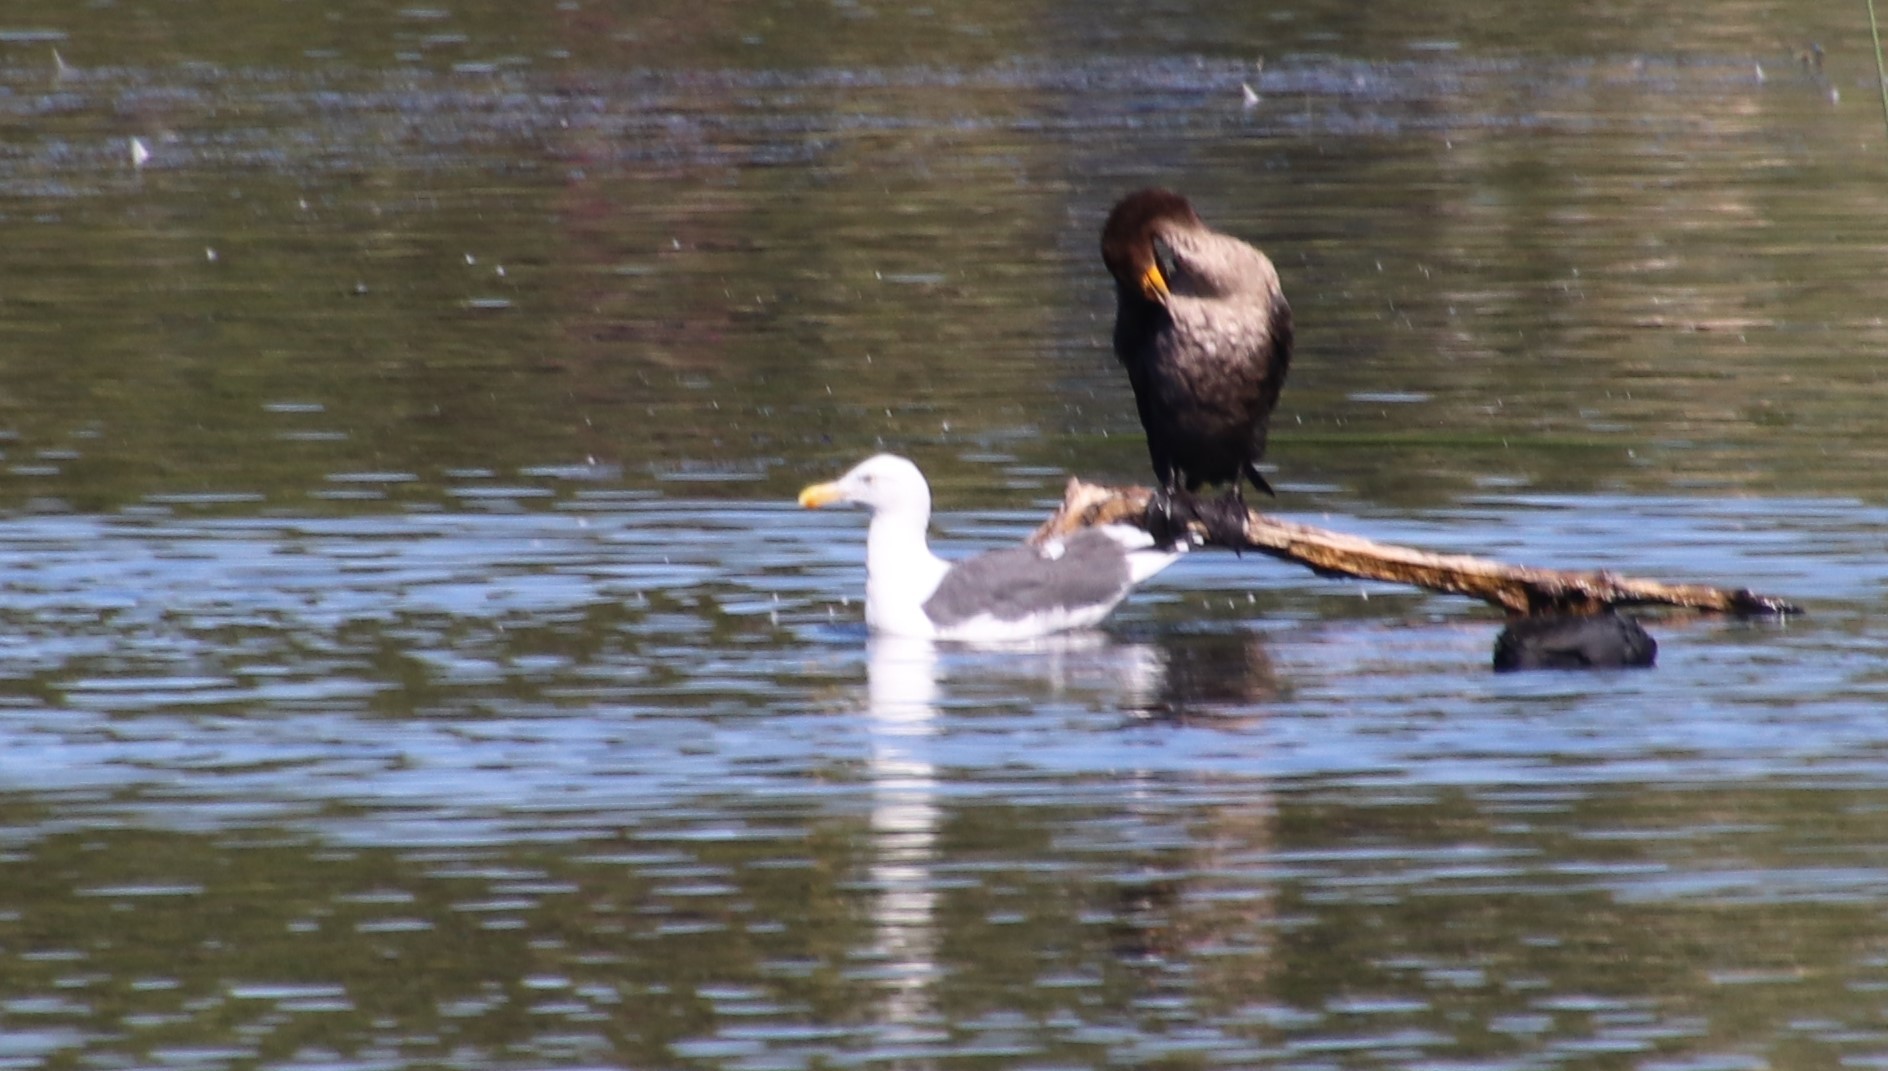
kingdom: Animalia
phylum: Chordata
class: Aves
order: Suliformes
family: Phalacrocoracidae
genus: Phalacrocorax
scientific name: Phalacrocorax auritus
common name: Double-crested cormorant
